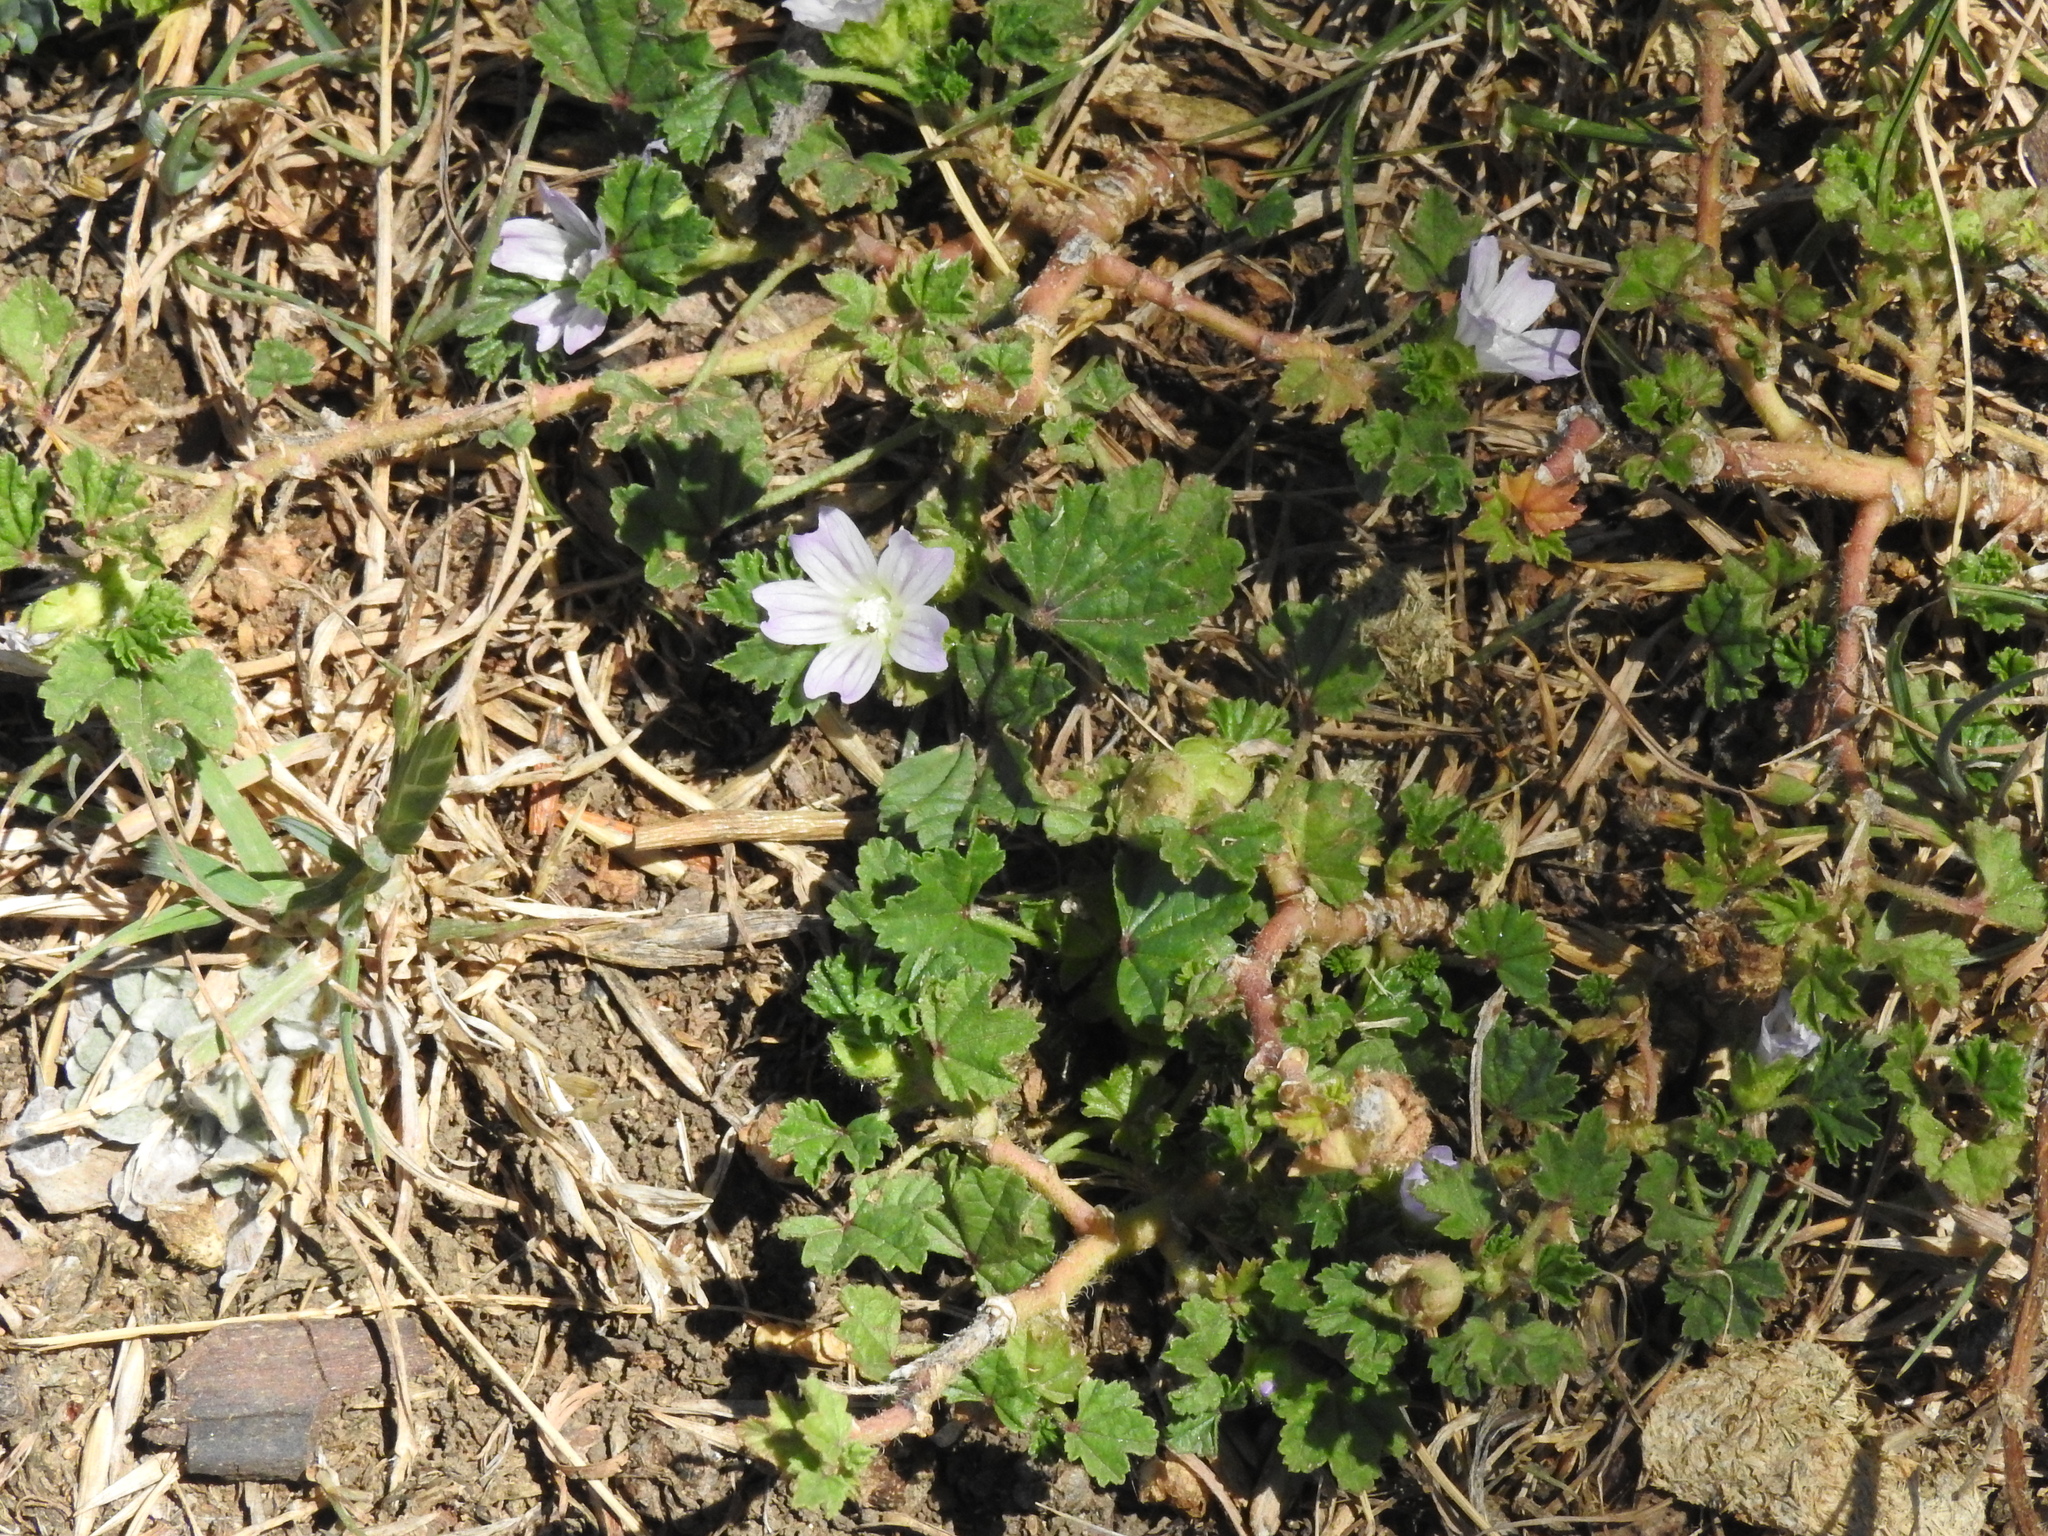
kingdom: Plantae
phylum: Tracheophyta
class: Magnoliopsida
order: Malvales
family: Malvaceae
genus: Malva
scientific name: Malva neglecta
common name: Common mallow
